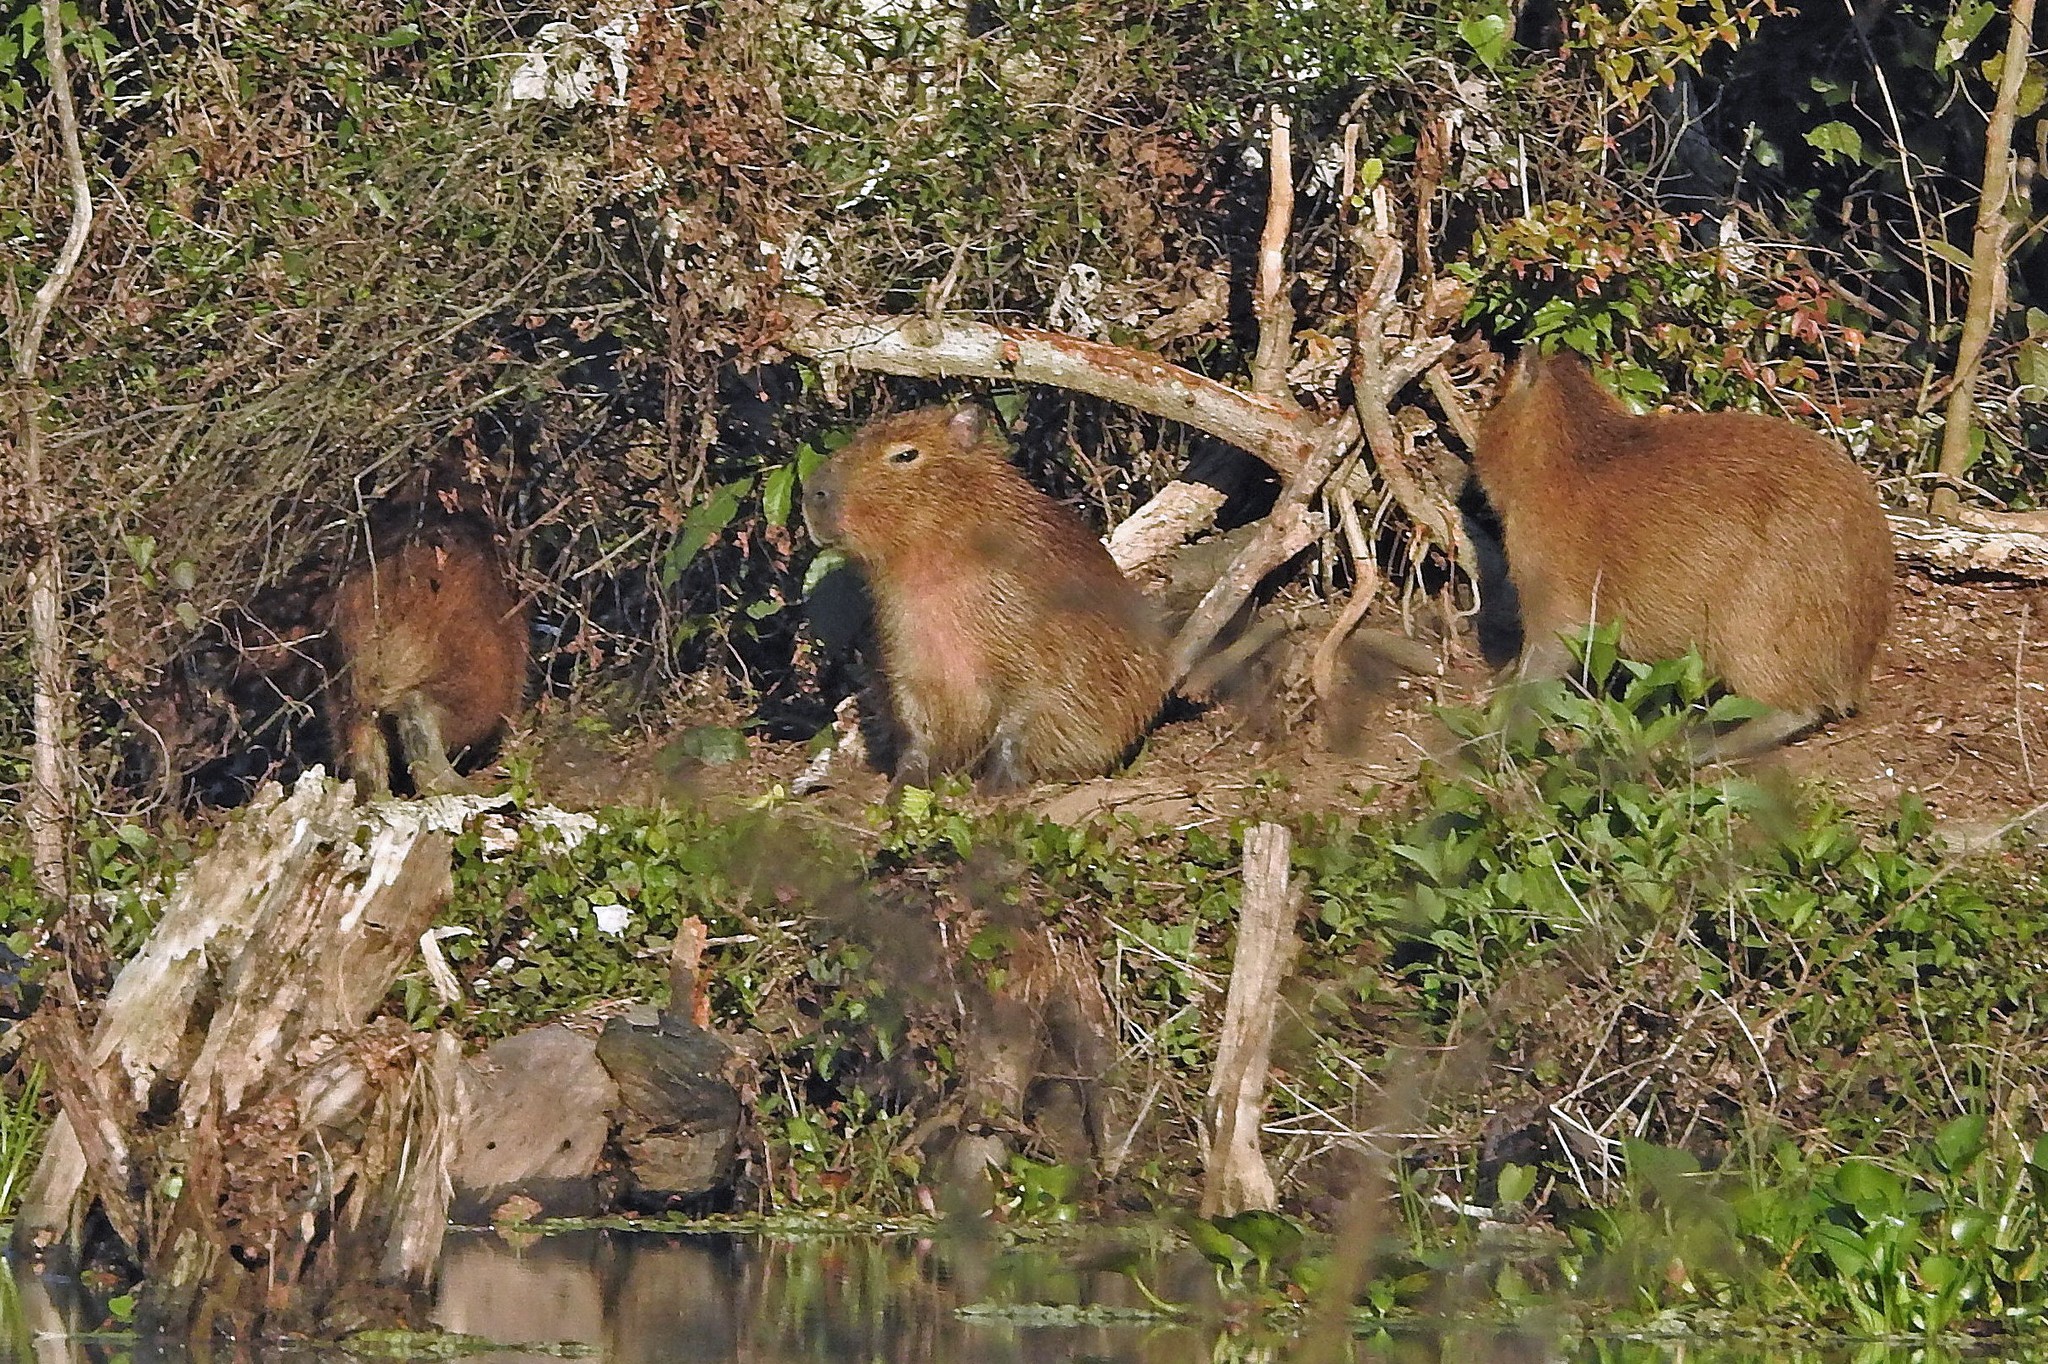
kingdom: Animalia
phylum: Chordata
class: Mammalia
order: Rodentia
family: Caviidae
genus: Hydrochoerus
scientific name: Hydrochoerus hydrochaeris
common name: Capybara
